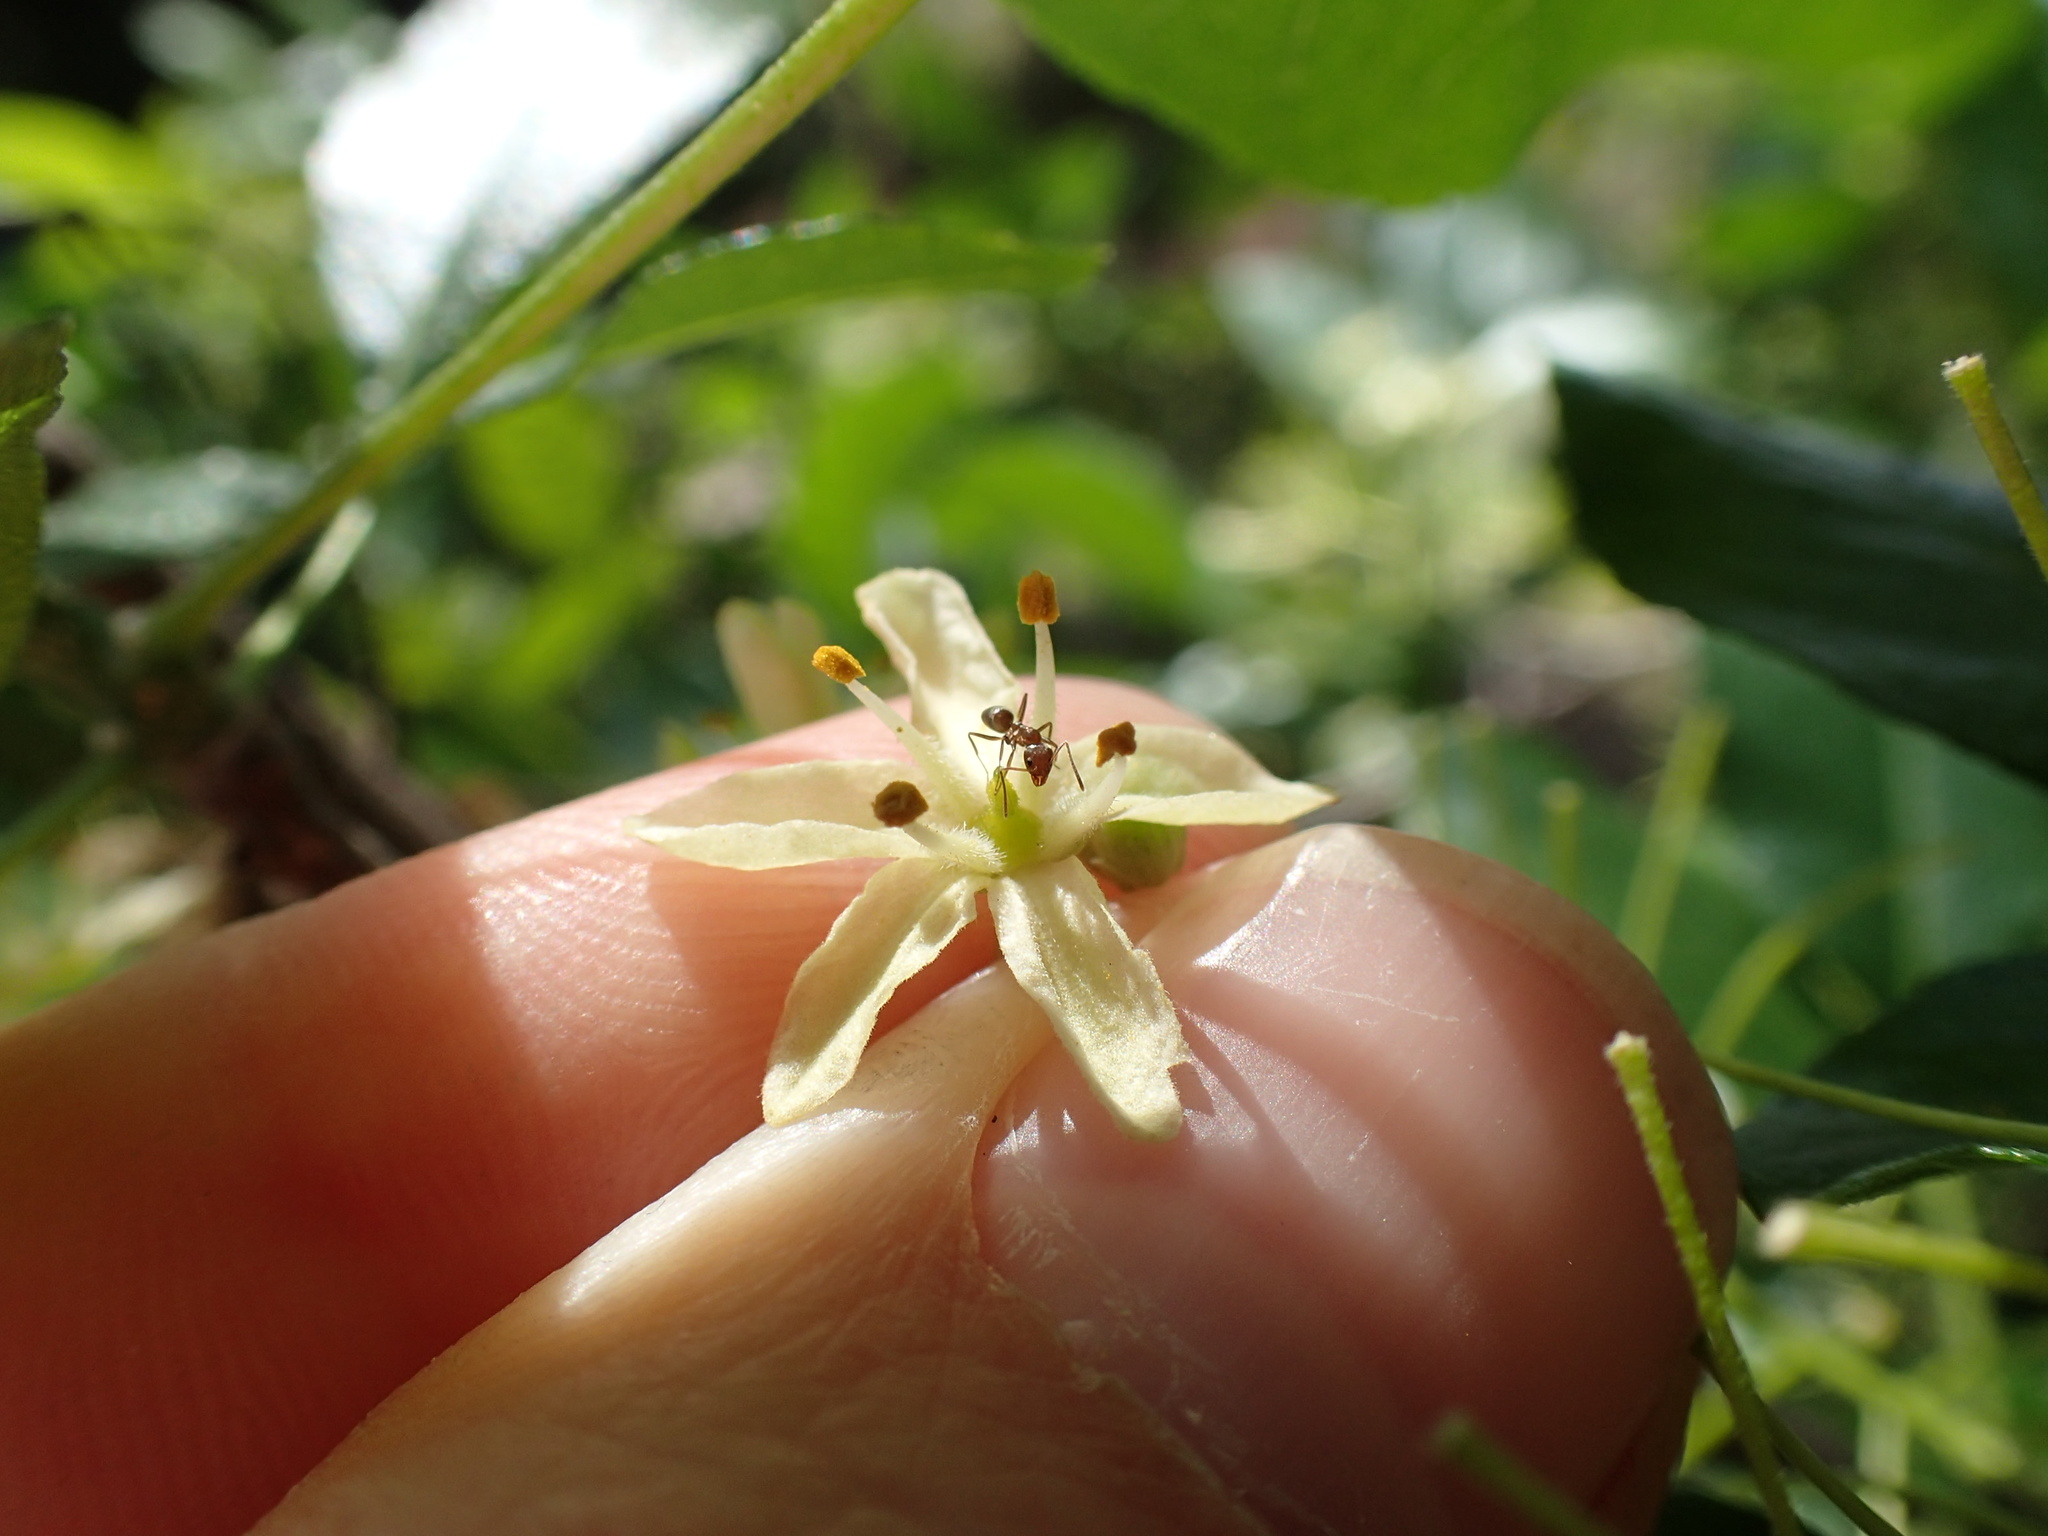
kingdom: Animalia
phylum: Arthropoda
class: Insecta
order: Hymenoptera
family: Formicidae
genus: Linepithema
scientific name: Linepithema humile
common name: Argentine ant
